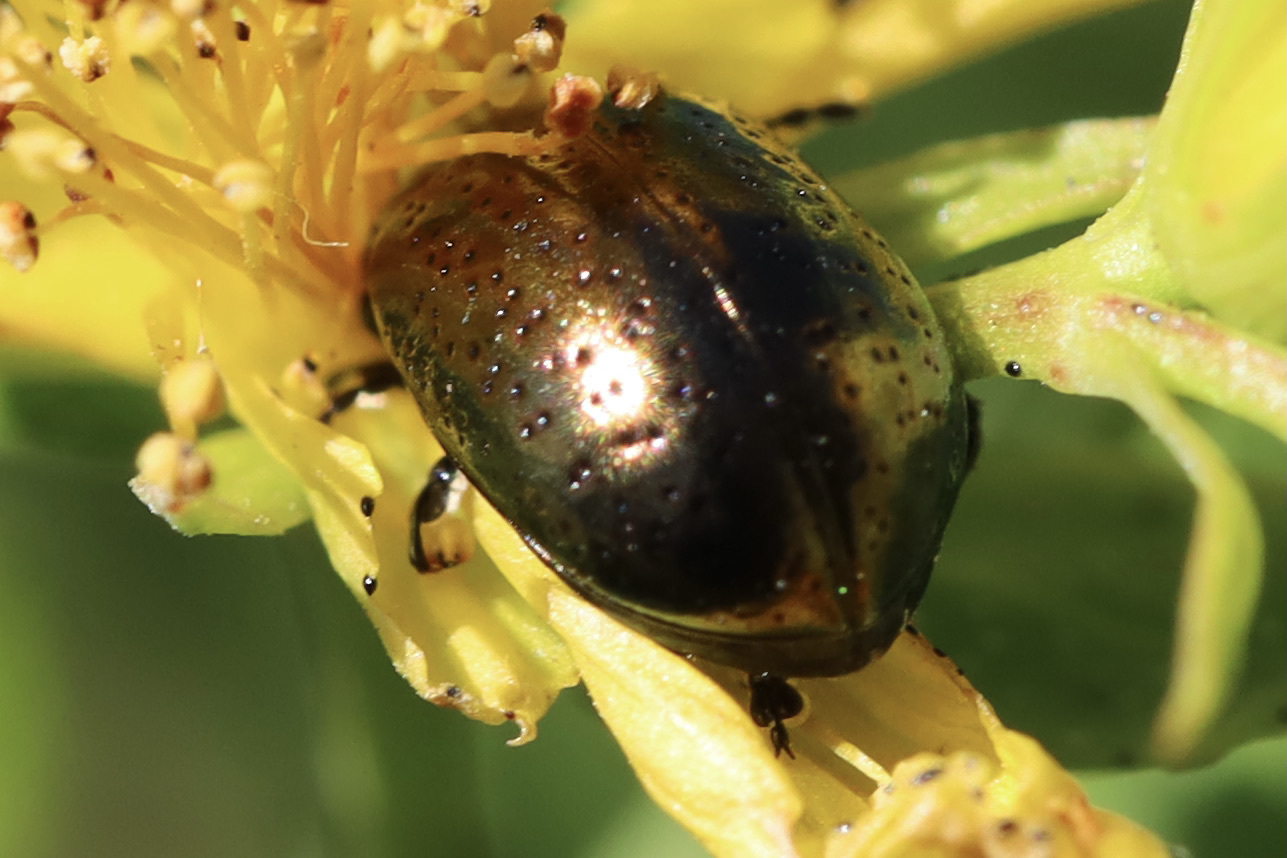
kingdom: Animalia
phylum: Arthropoda
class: Insecta
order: Coleoptera
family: Chrysomelidae
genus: Chrysolina
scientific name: Chrysolina hyperici
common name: St. johnswort beetle
